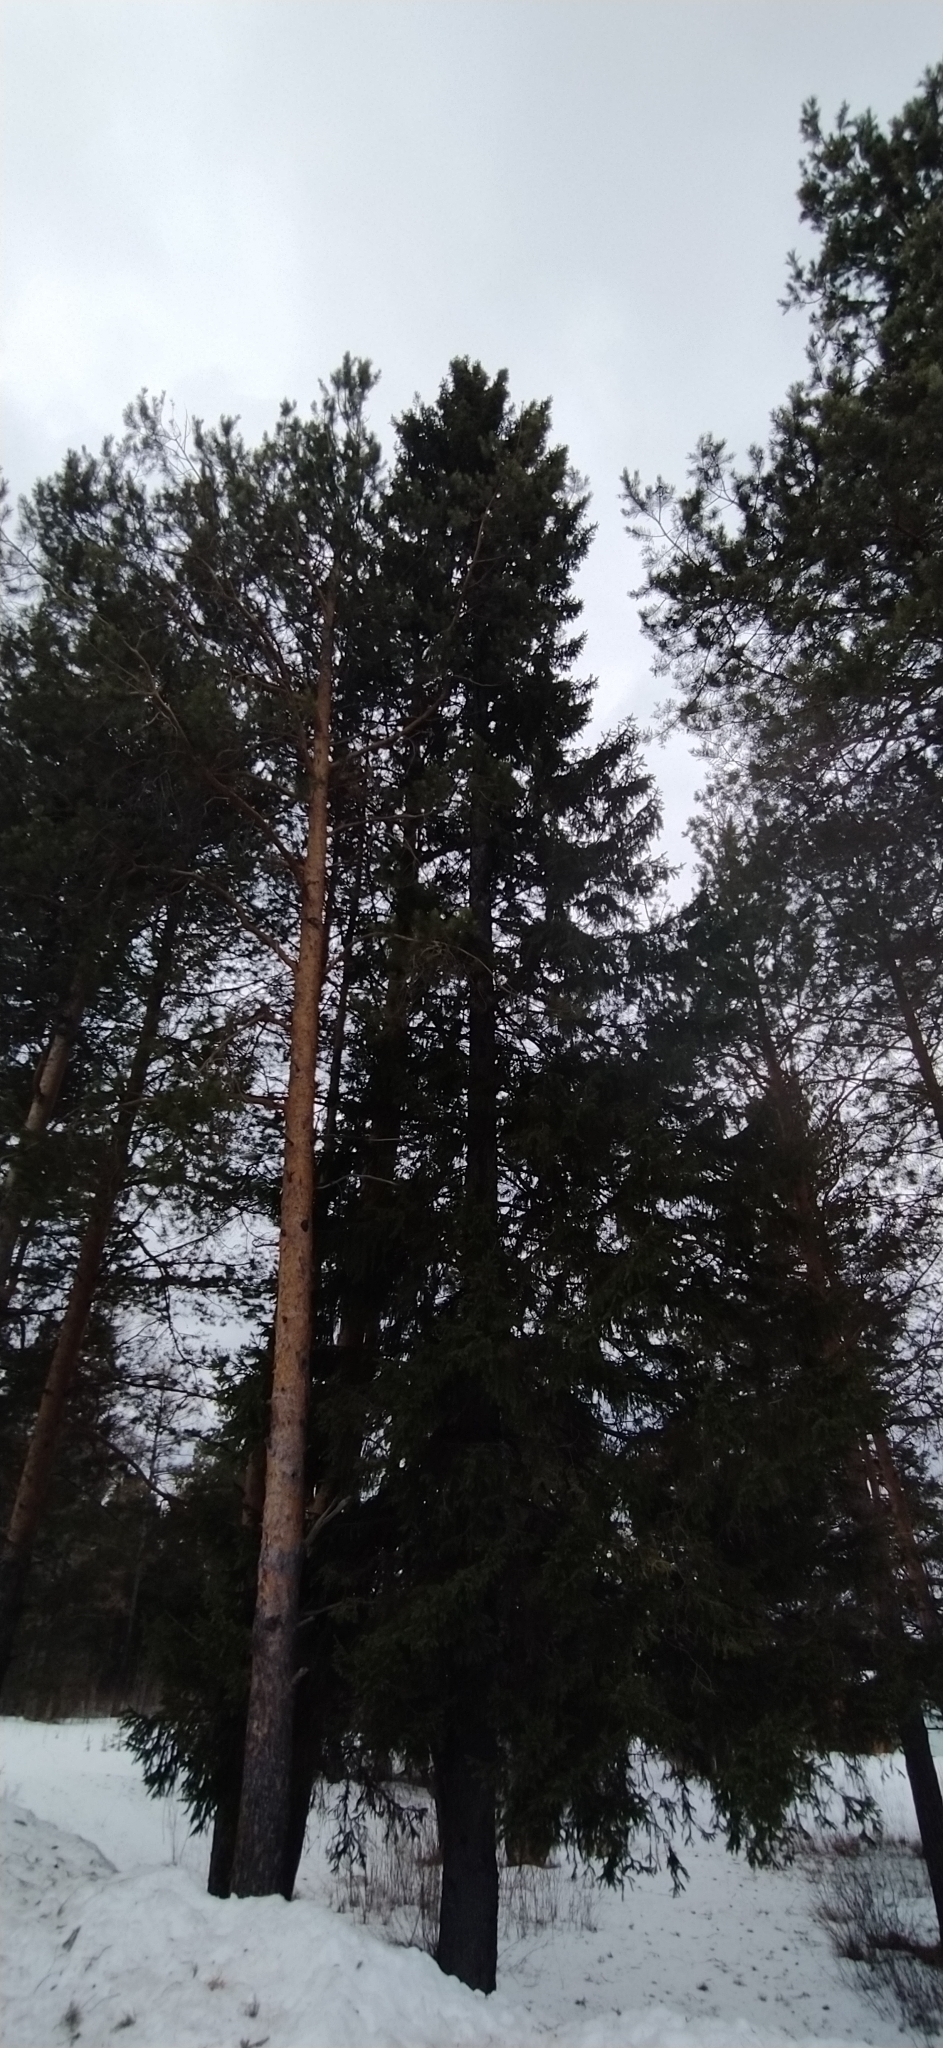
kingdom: Plantae
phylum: Tracheophyta
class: Pinopsida
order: Pinales
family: Pinaceae
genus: Picea
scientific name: Picea obovata
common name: Siberian spruce
